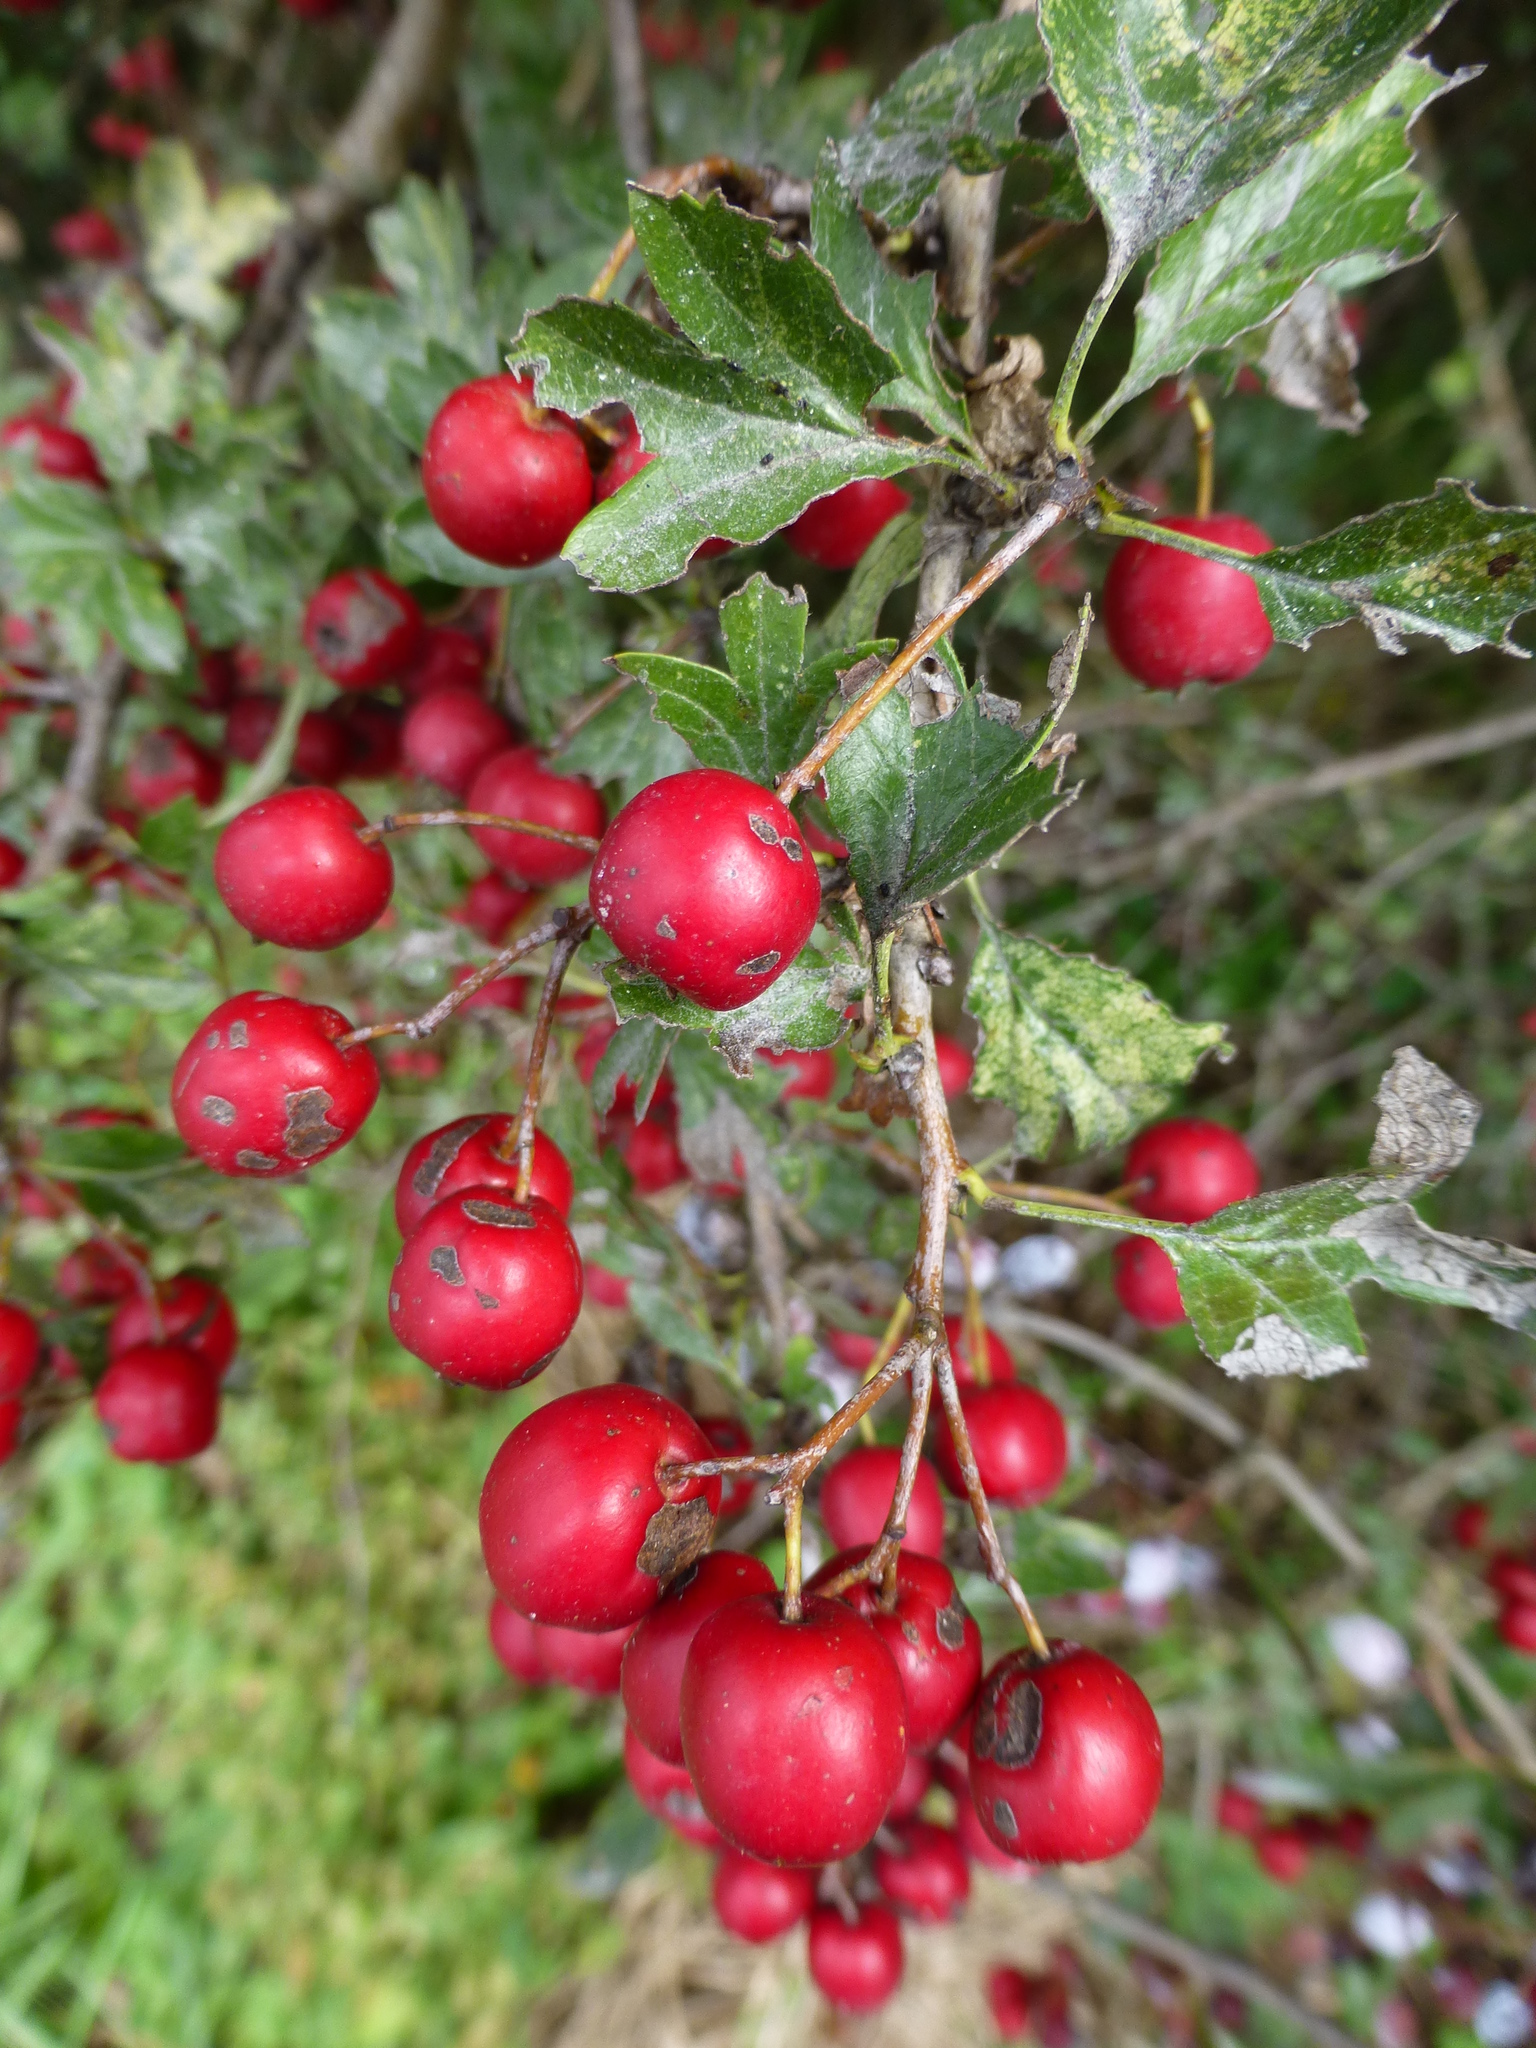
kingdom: Plantae
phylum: Tracheophyta
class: Magnoliopsida
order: Rosales
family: Rosaceae
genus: Crataegus
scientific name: Crataegus monogyna
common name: Hawthorn
